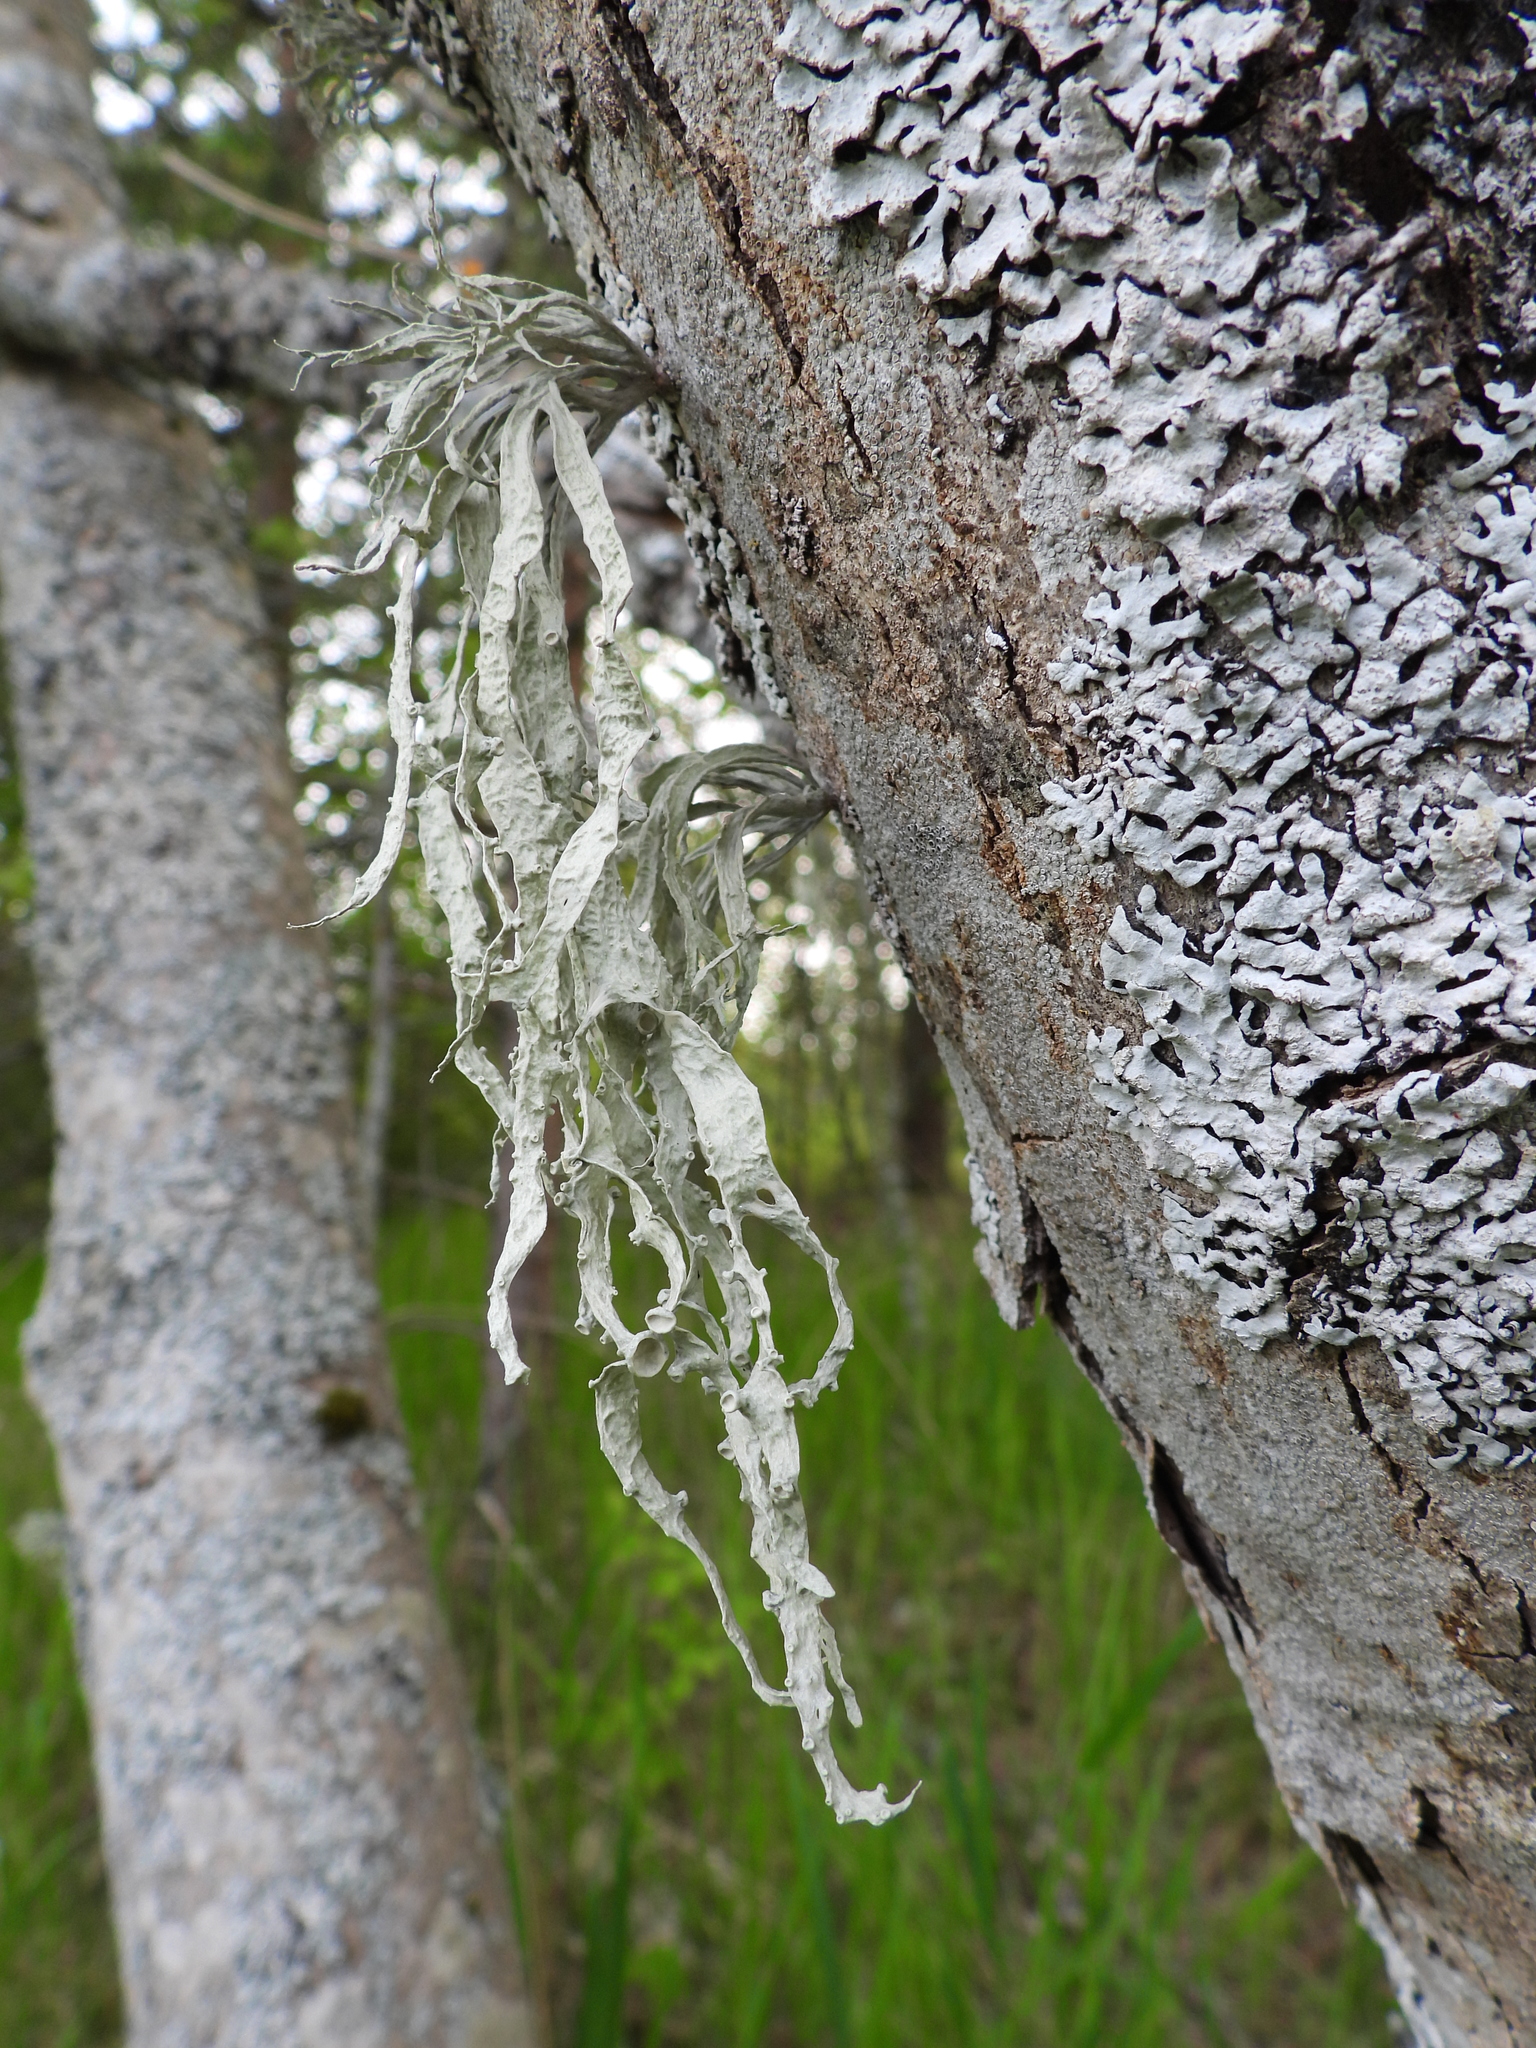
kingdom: Fungi
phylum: Ascomycota
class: Lecanoromycetes
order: Lecanorales
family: Ramalinaceae
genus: Ramalina
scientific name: Ramalina fraxinea
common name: Cartilage lichen
